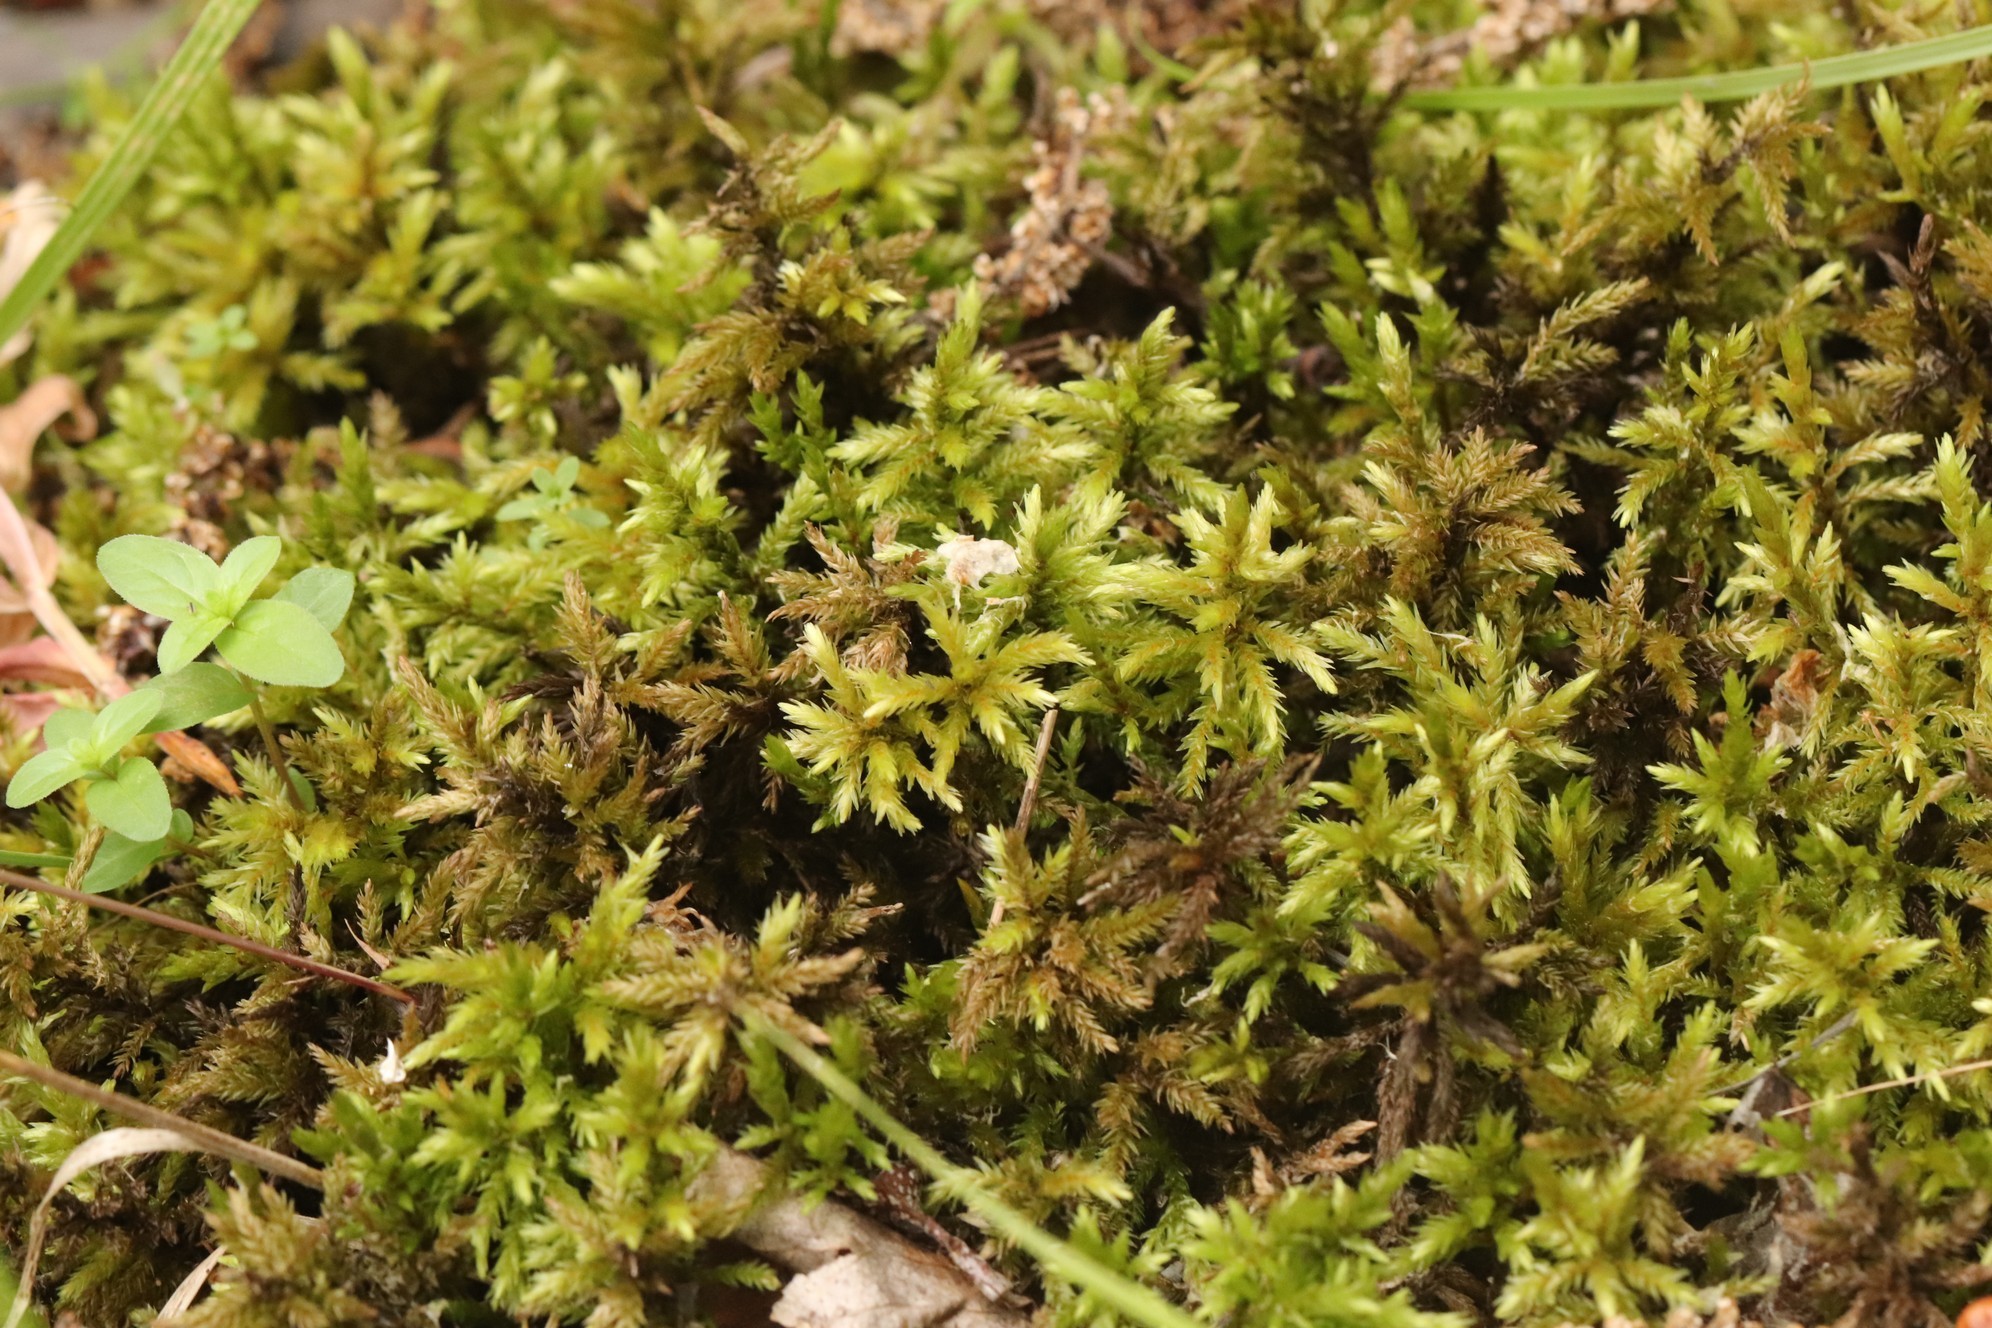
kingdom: Plantae
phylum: Bryophyta
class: Bryopsida
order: Hypnales
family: Climaciaceae
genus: Climacium
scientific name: Climacium dendroides
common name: Northern tree moss
